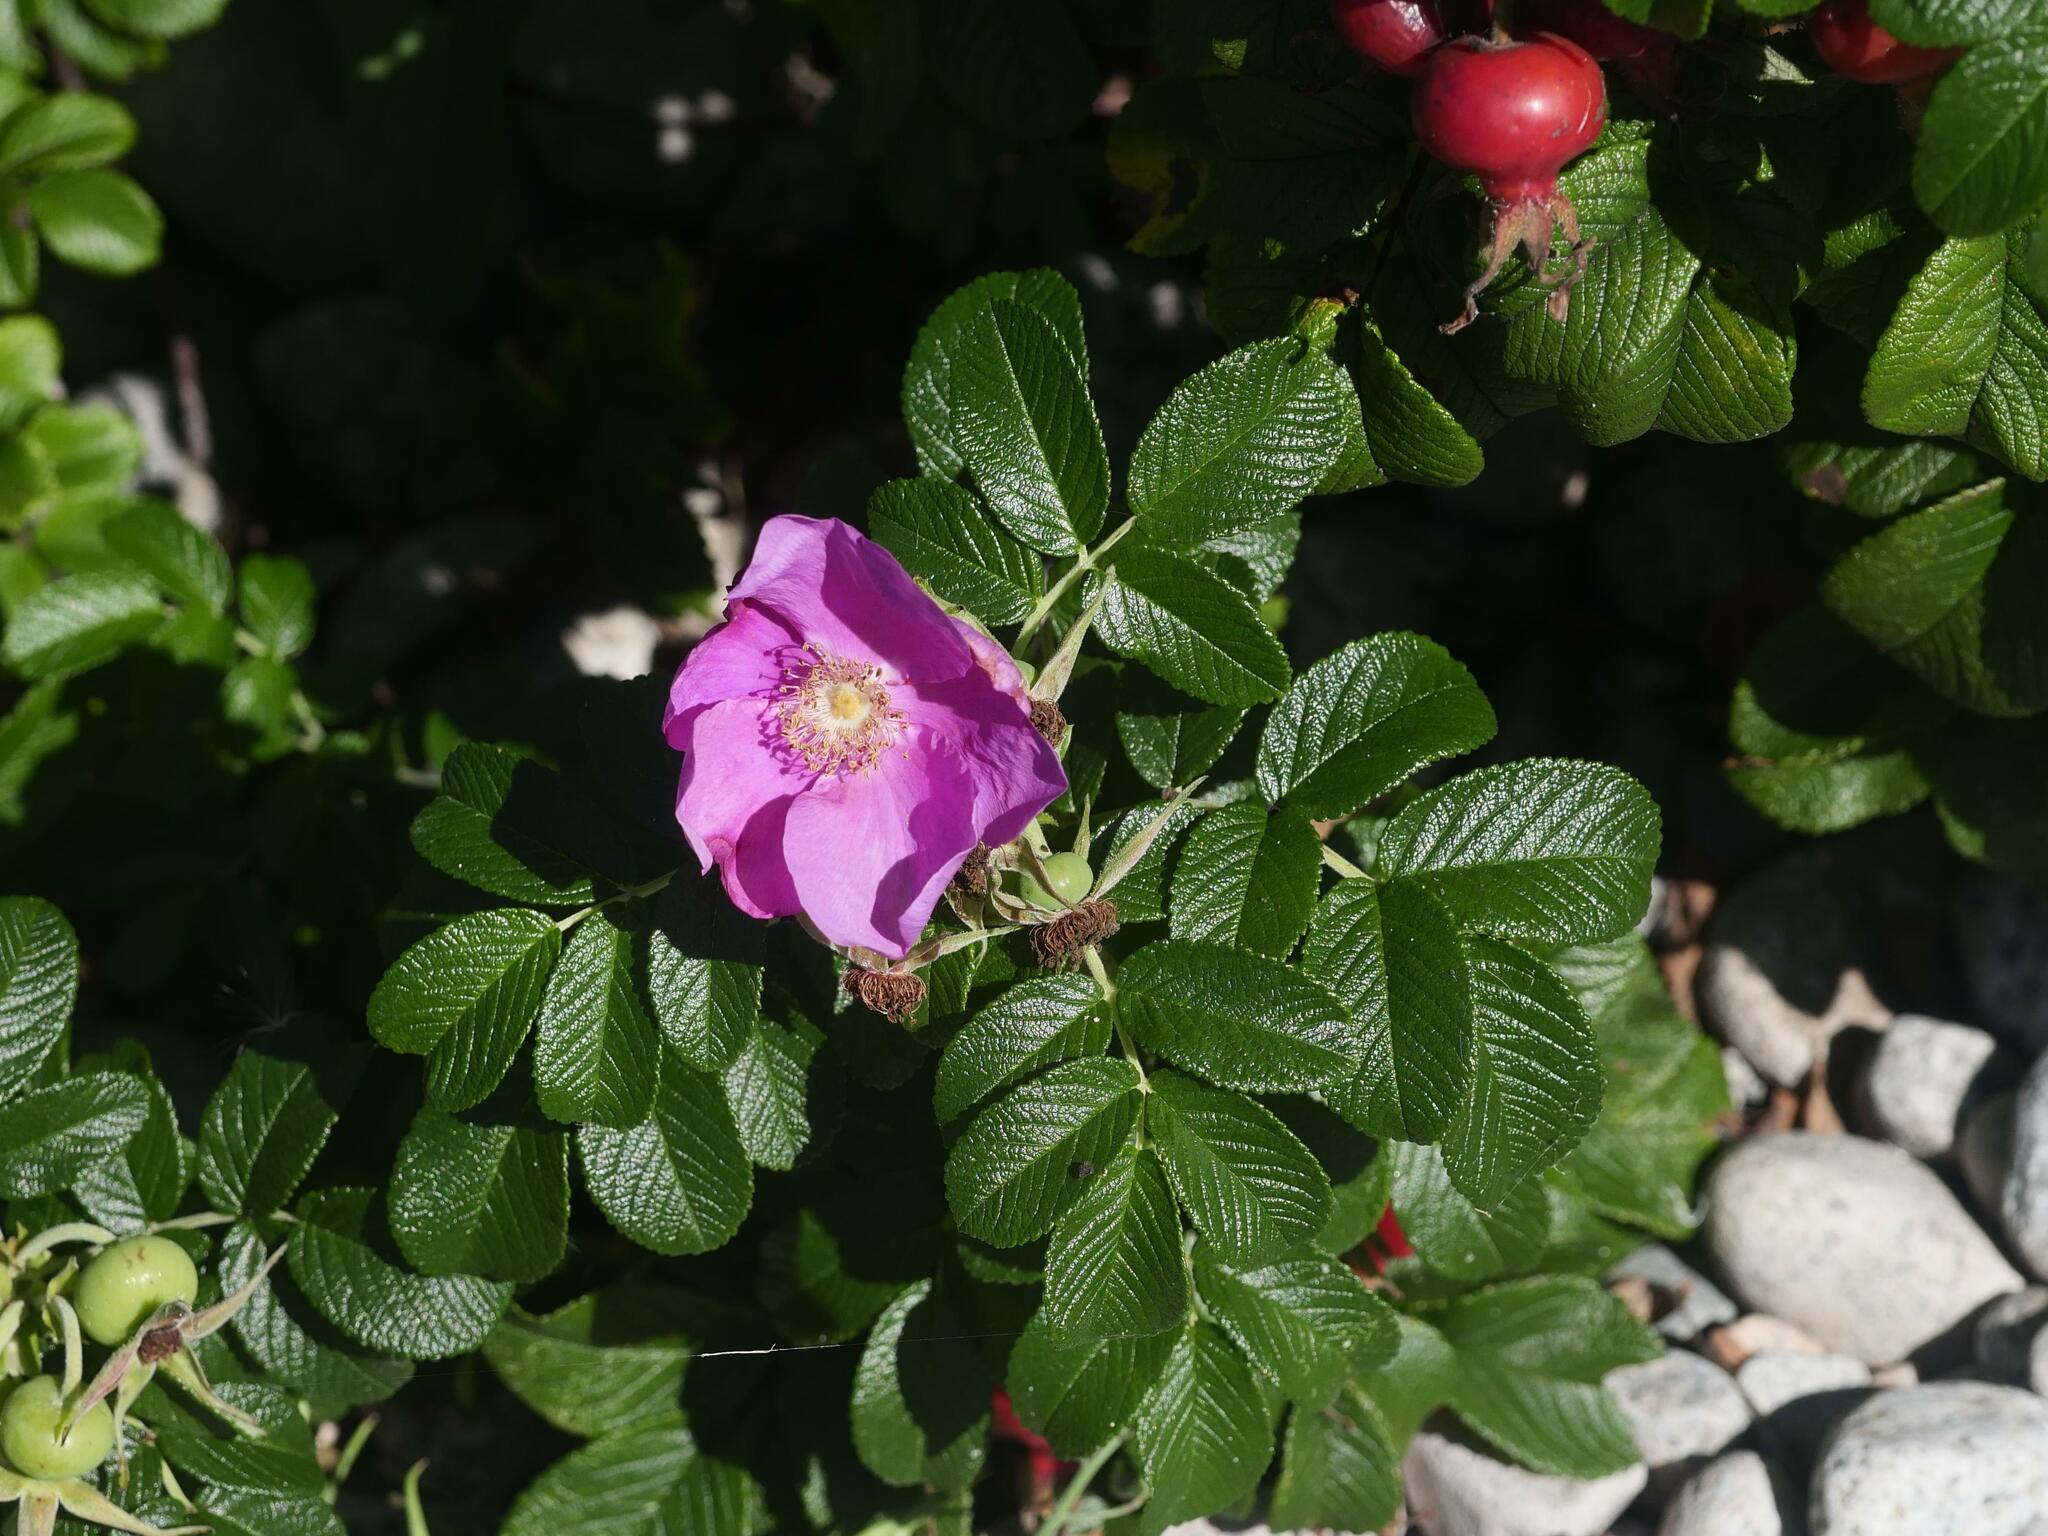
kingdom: Plantae
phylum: Tracheophyta
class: Magnoliopsida
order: Rosales
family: Rosaceae
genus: Rosa
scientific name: Rosa rugosa
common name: Japanese rose
